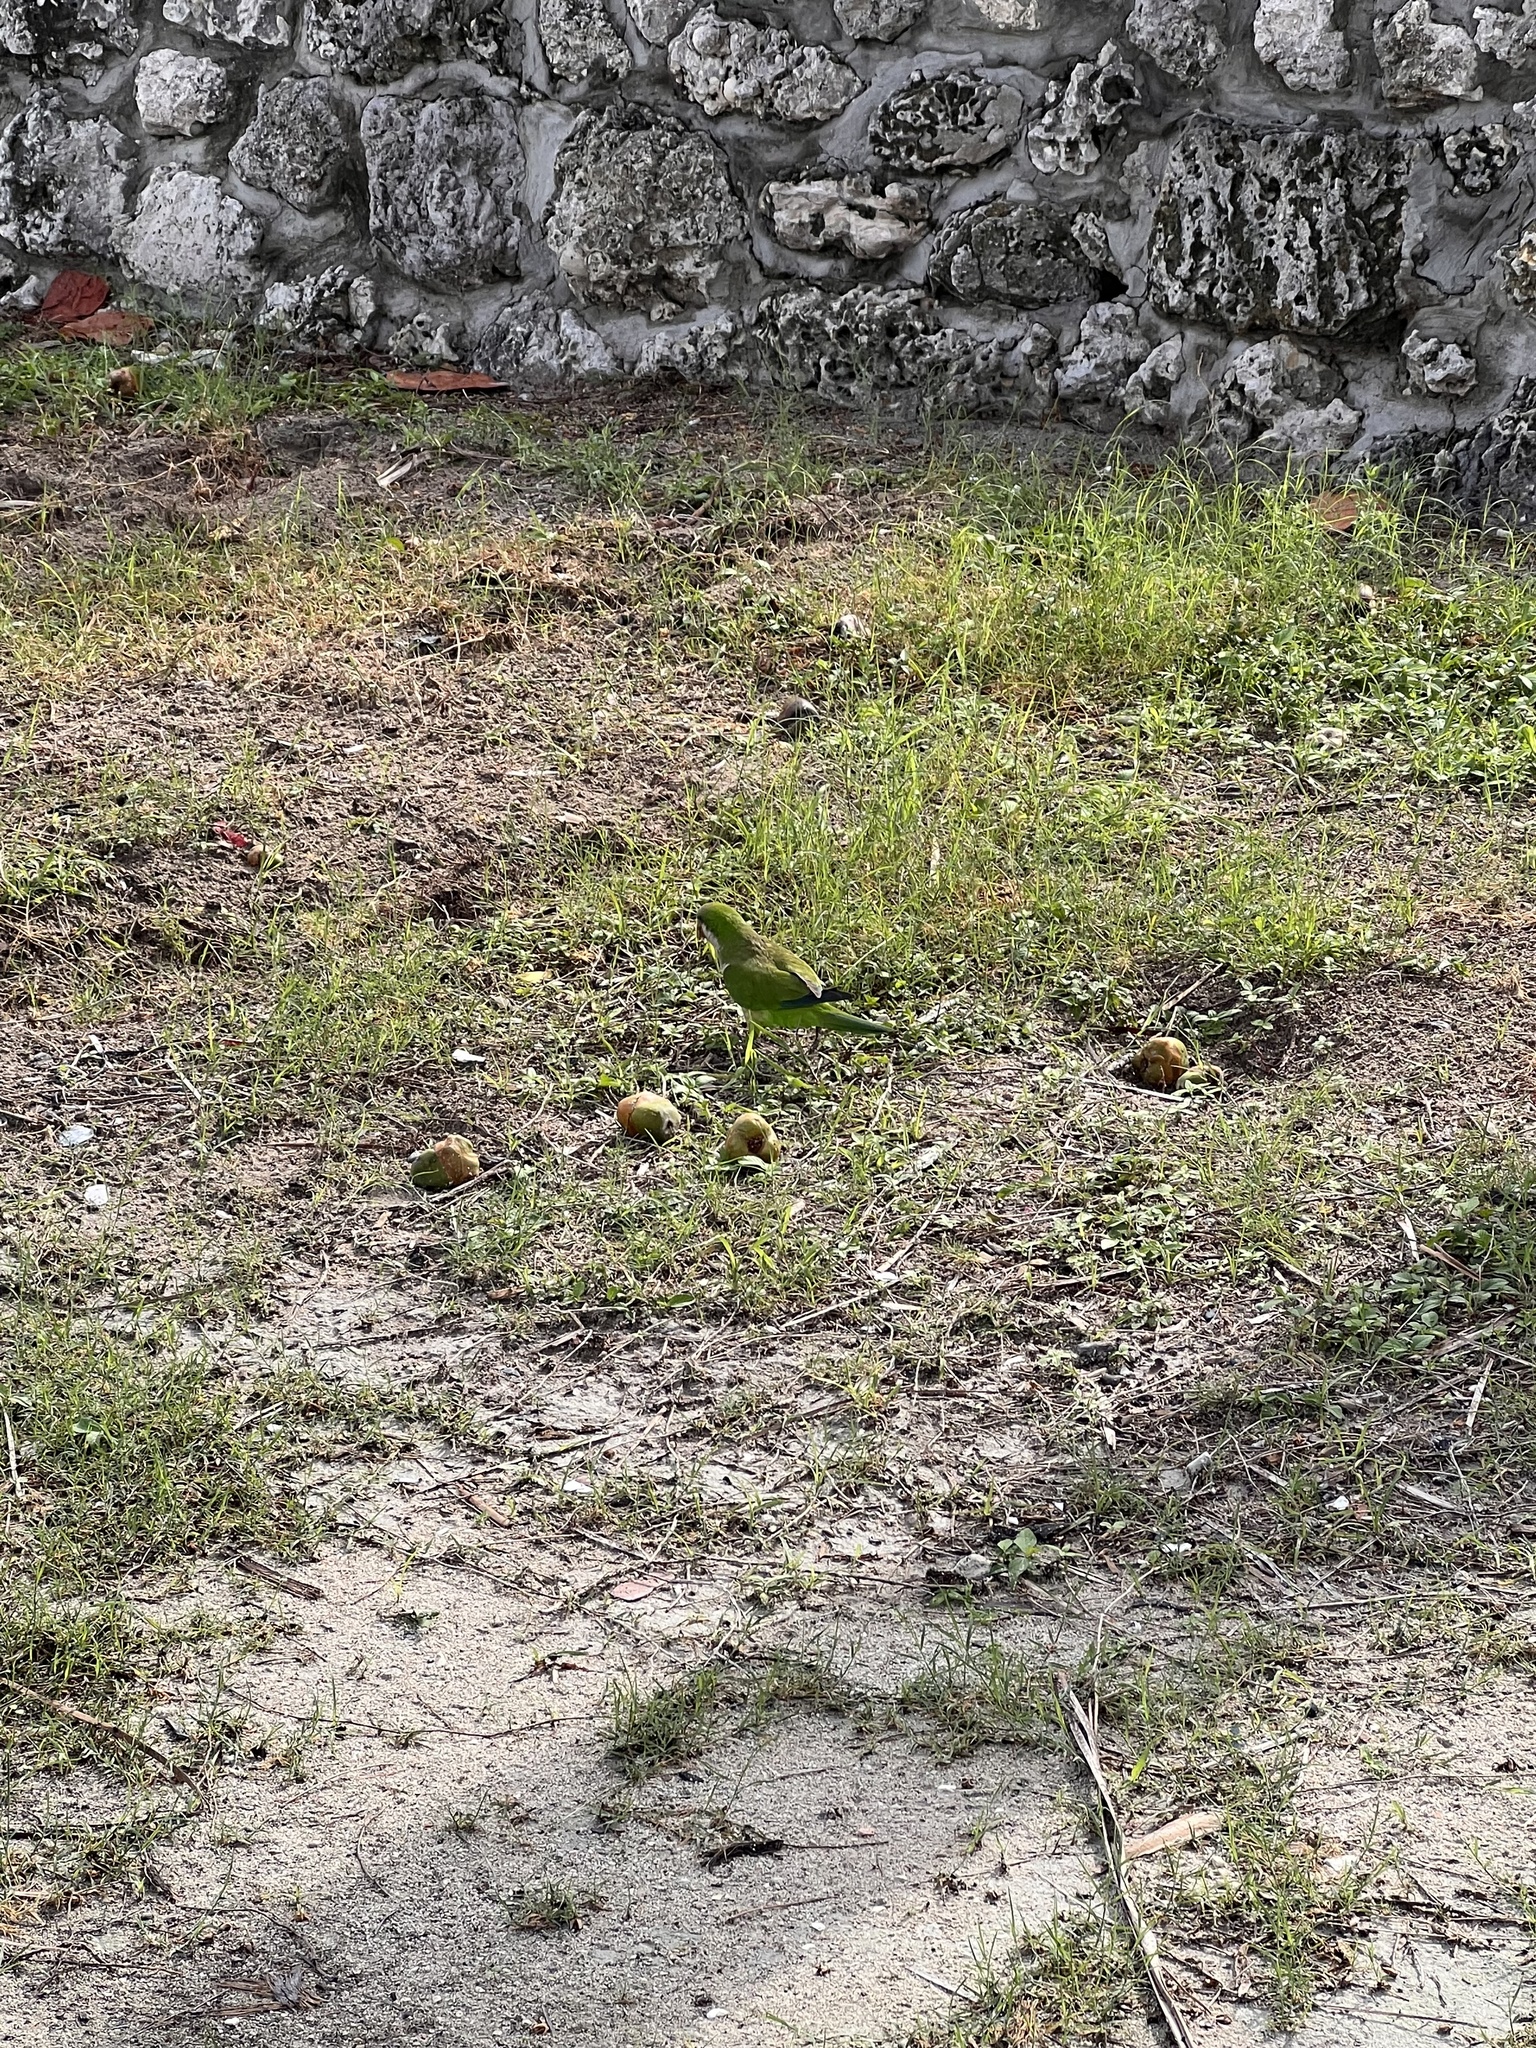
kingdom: Animalia
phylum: Chordata
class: Aves
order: Psittaciformes
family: Psittacidae
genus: Myiopsitta
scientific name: Myiopsitta monachus
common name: Monk parakeet
